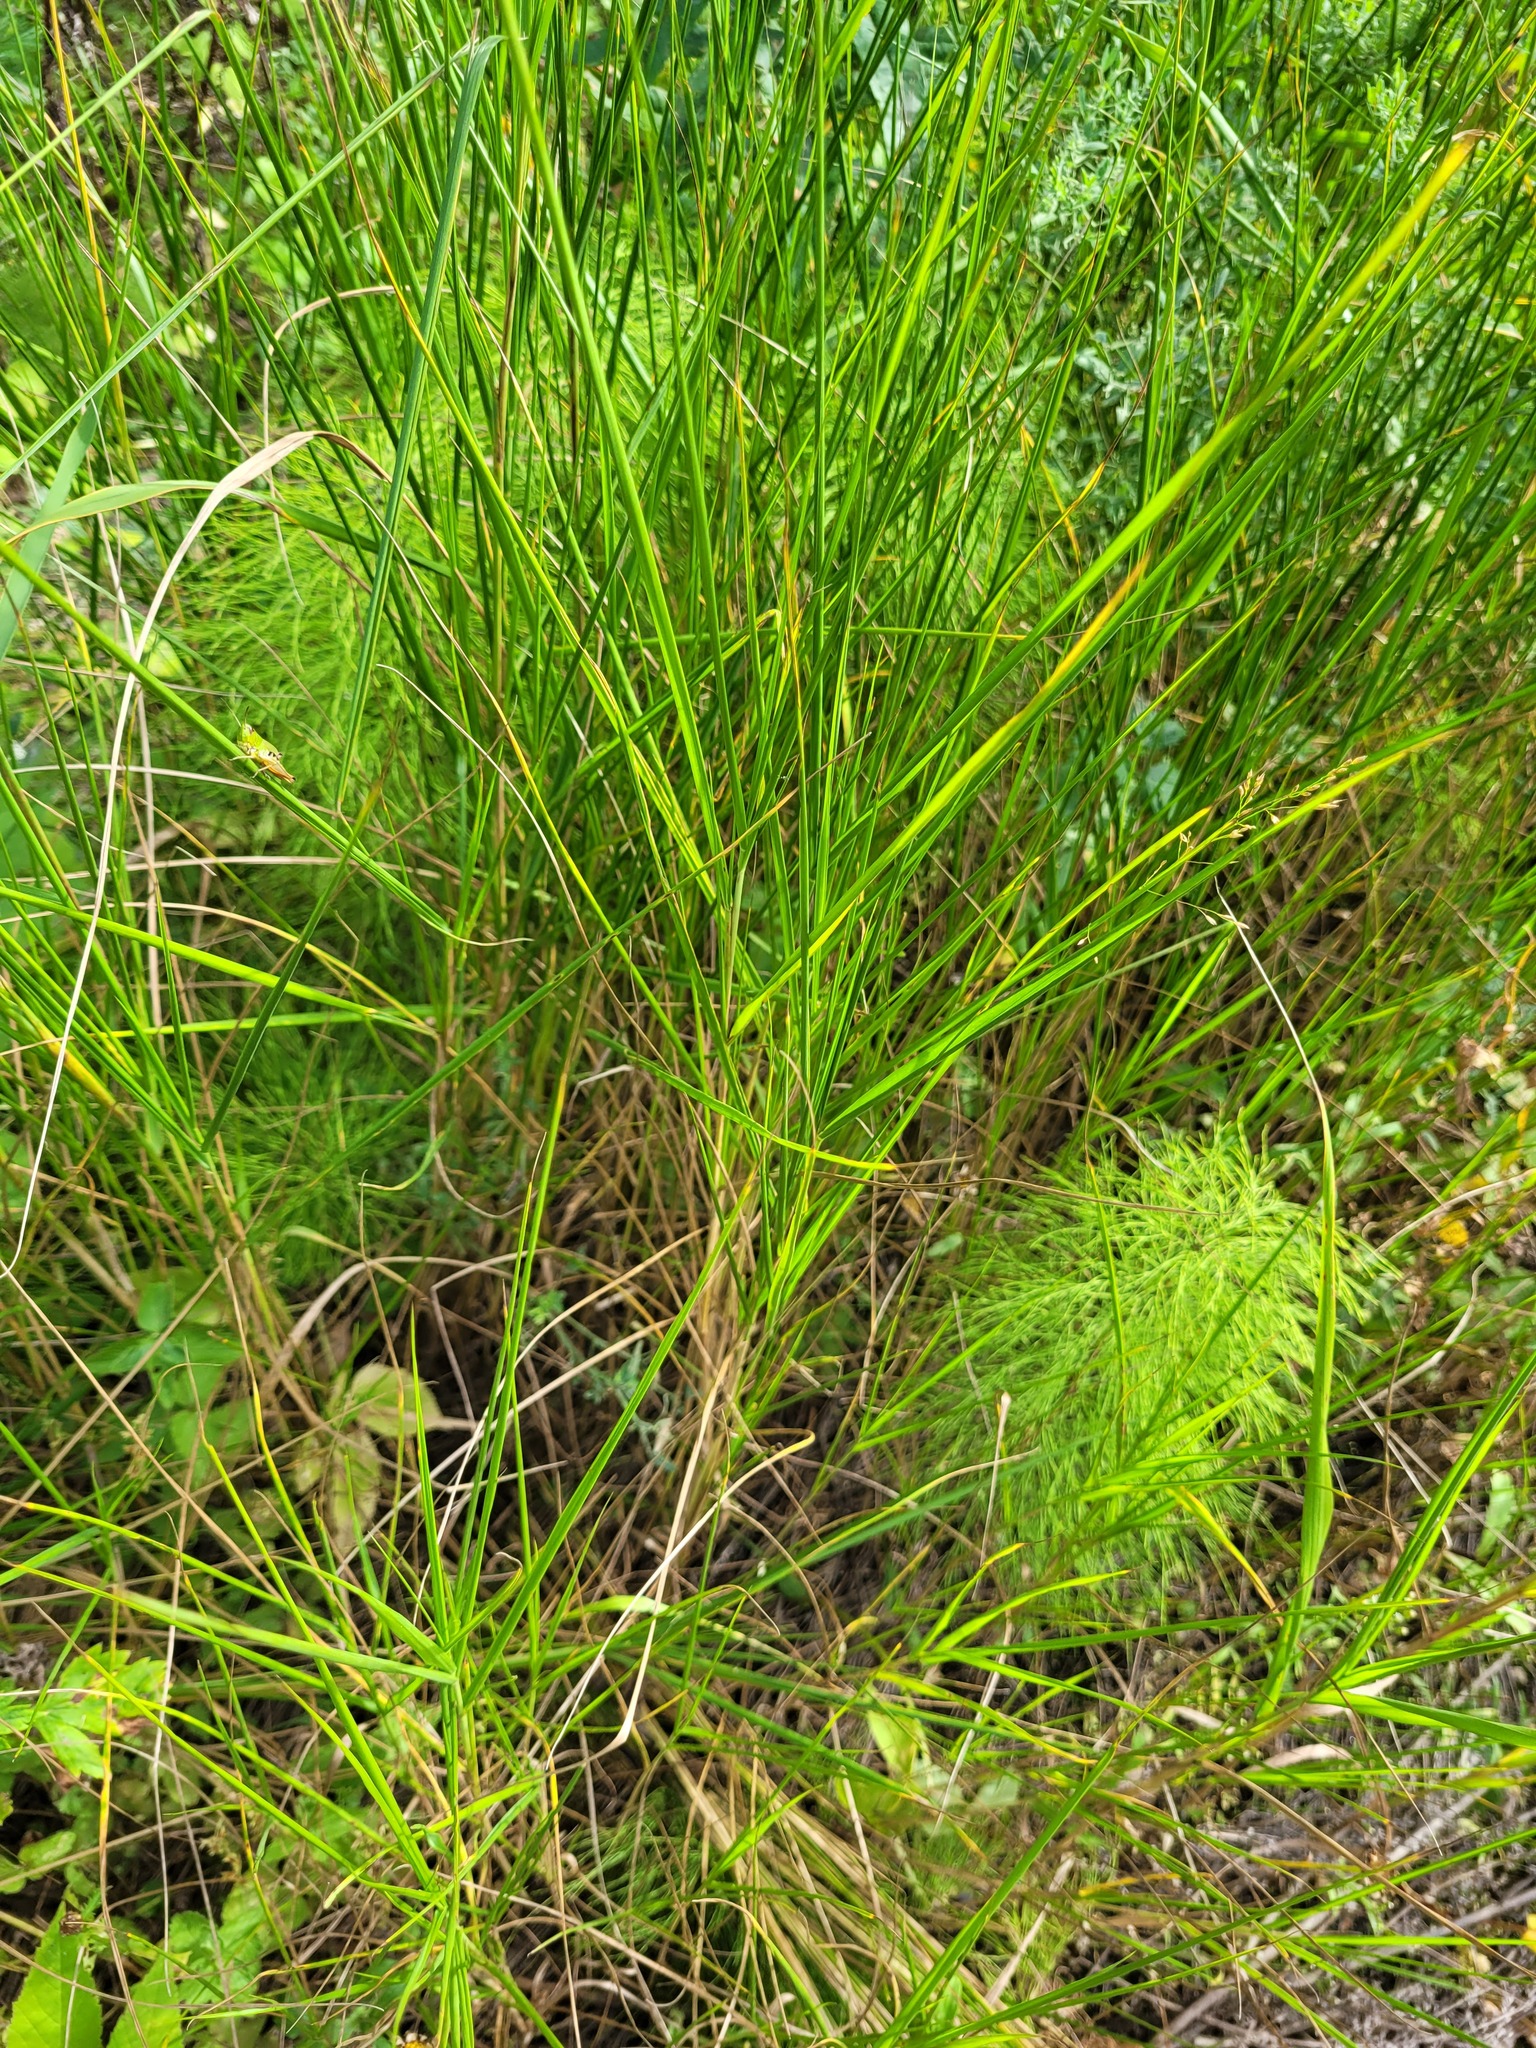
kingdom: Plantae
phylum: Tracheophyta
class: Liliopsida
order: Poales
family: Poaceae
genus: Calamagrostis
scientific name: Calamagrostis canescens
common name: Purple small-reed
